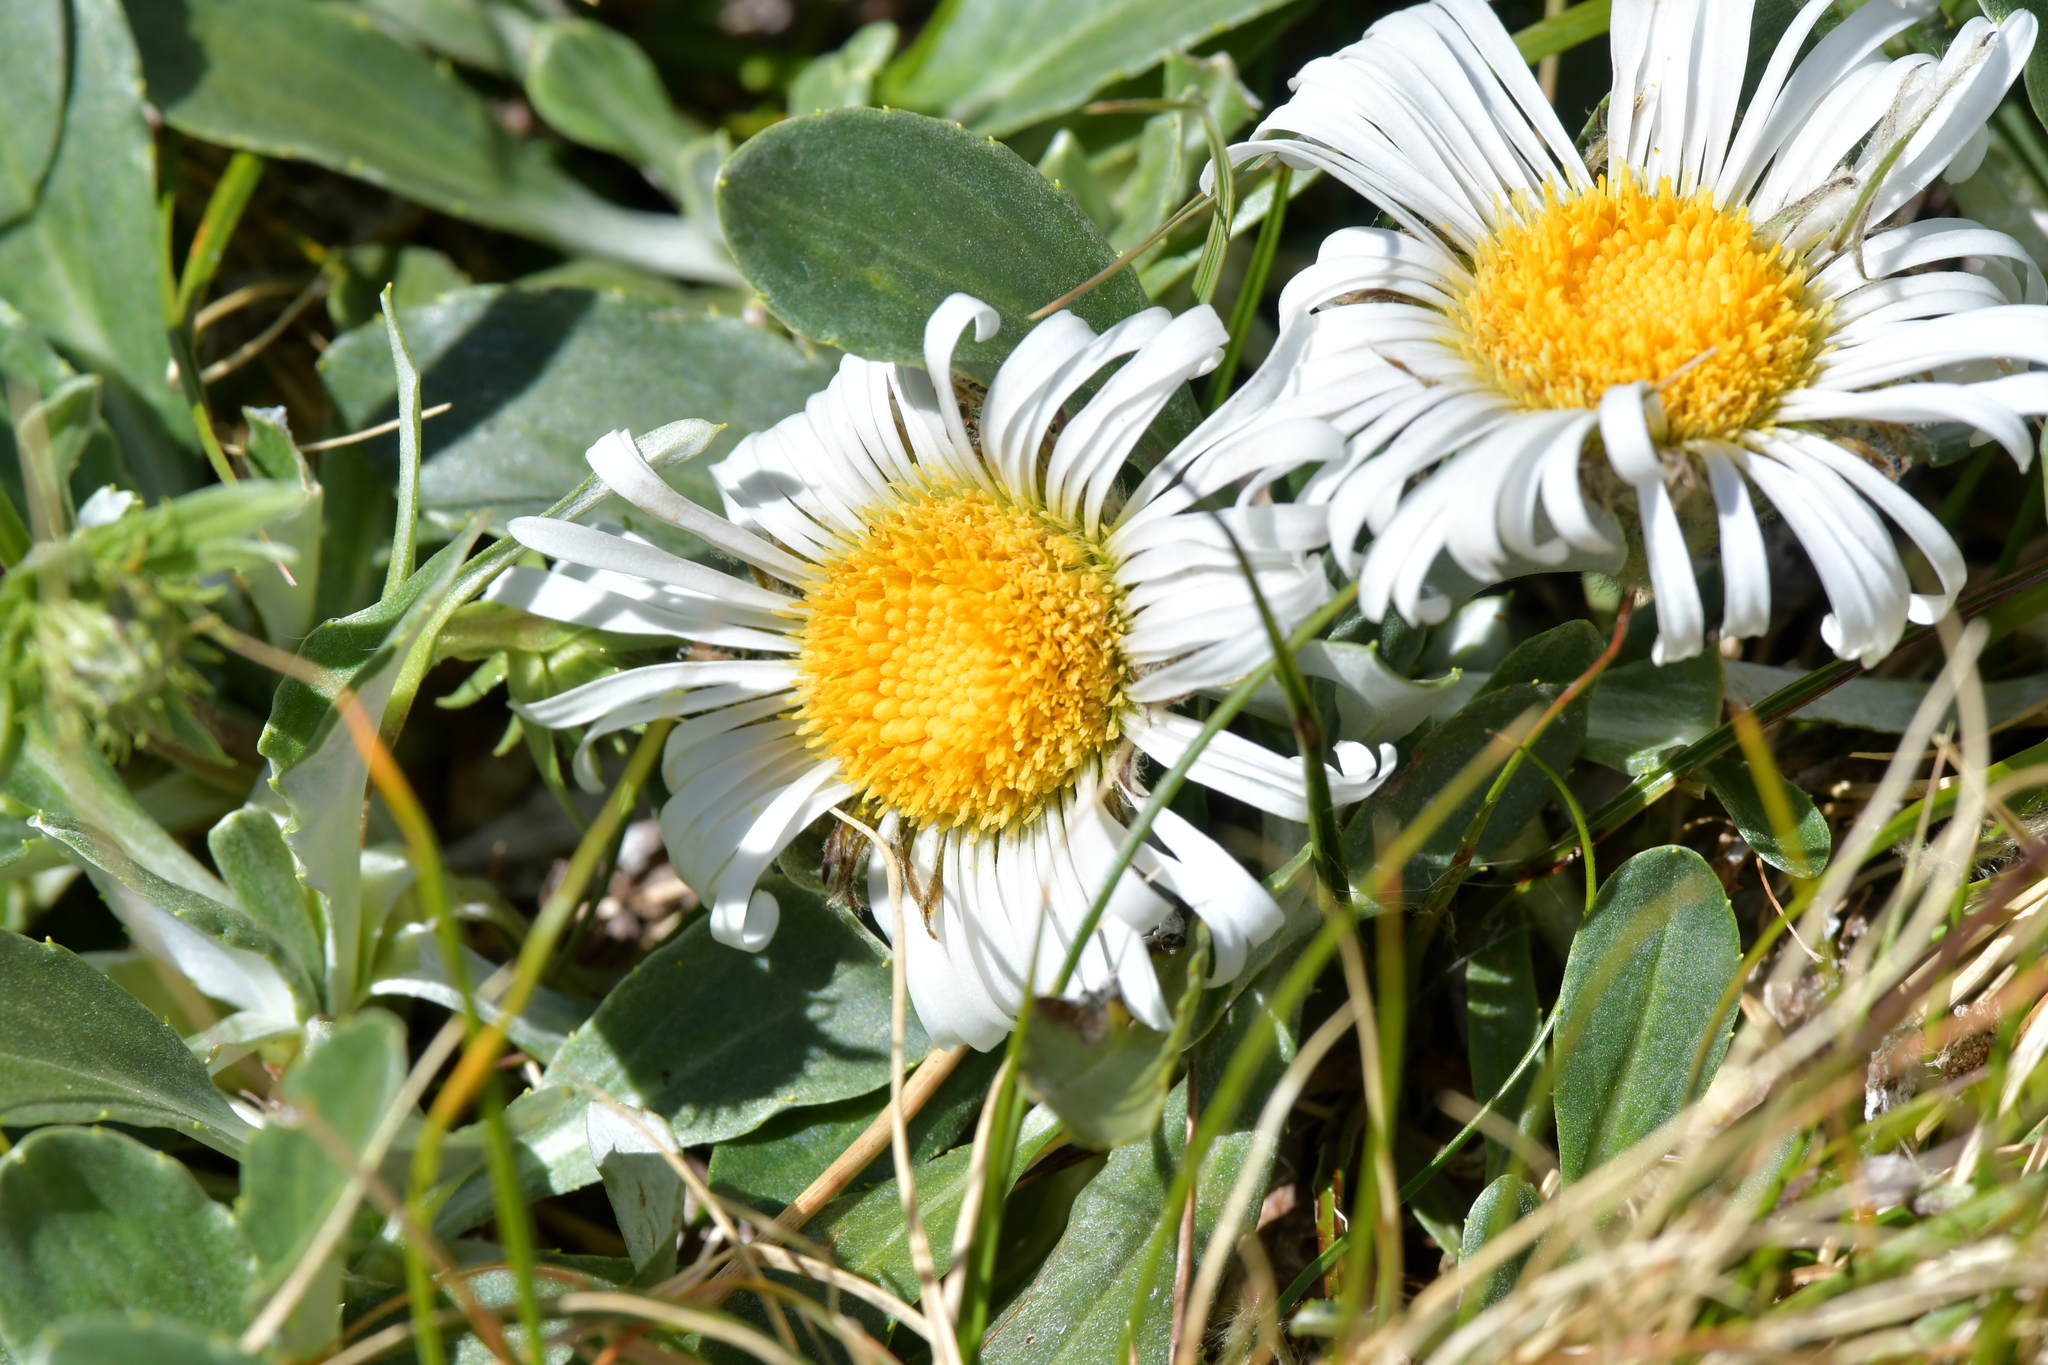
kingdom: Plantae
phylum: Tracheophyta
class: Magnoliopsida
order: Asterales
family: Asteraceae
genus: Celmisia
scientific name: Celmisia durietzii
